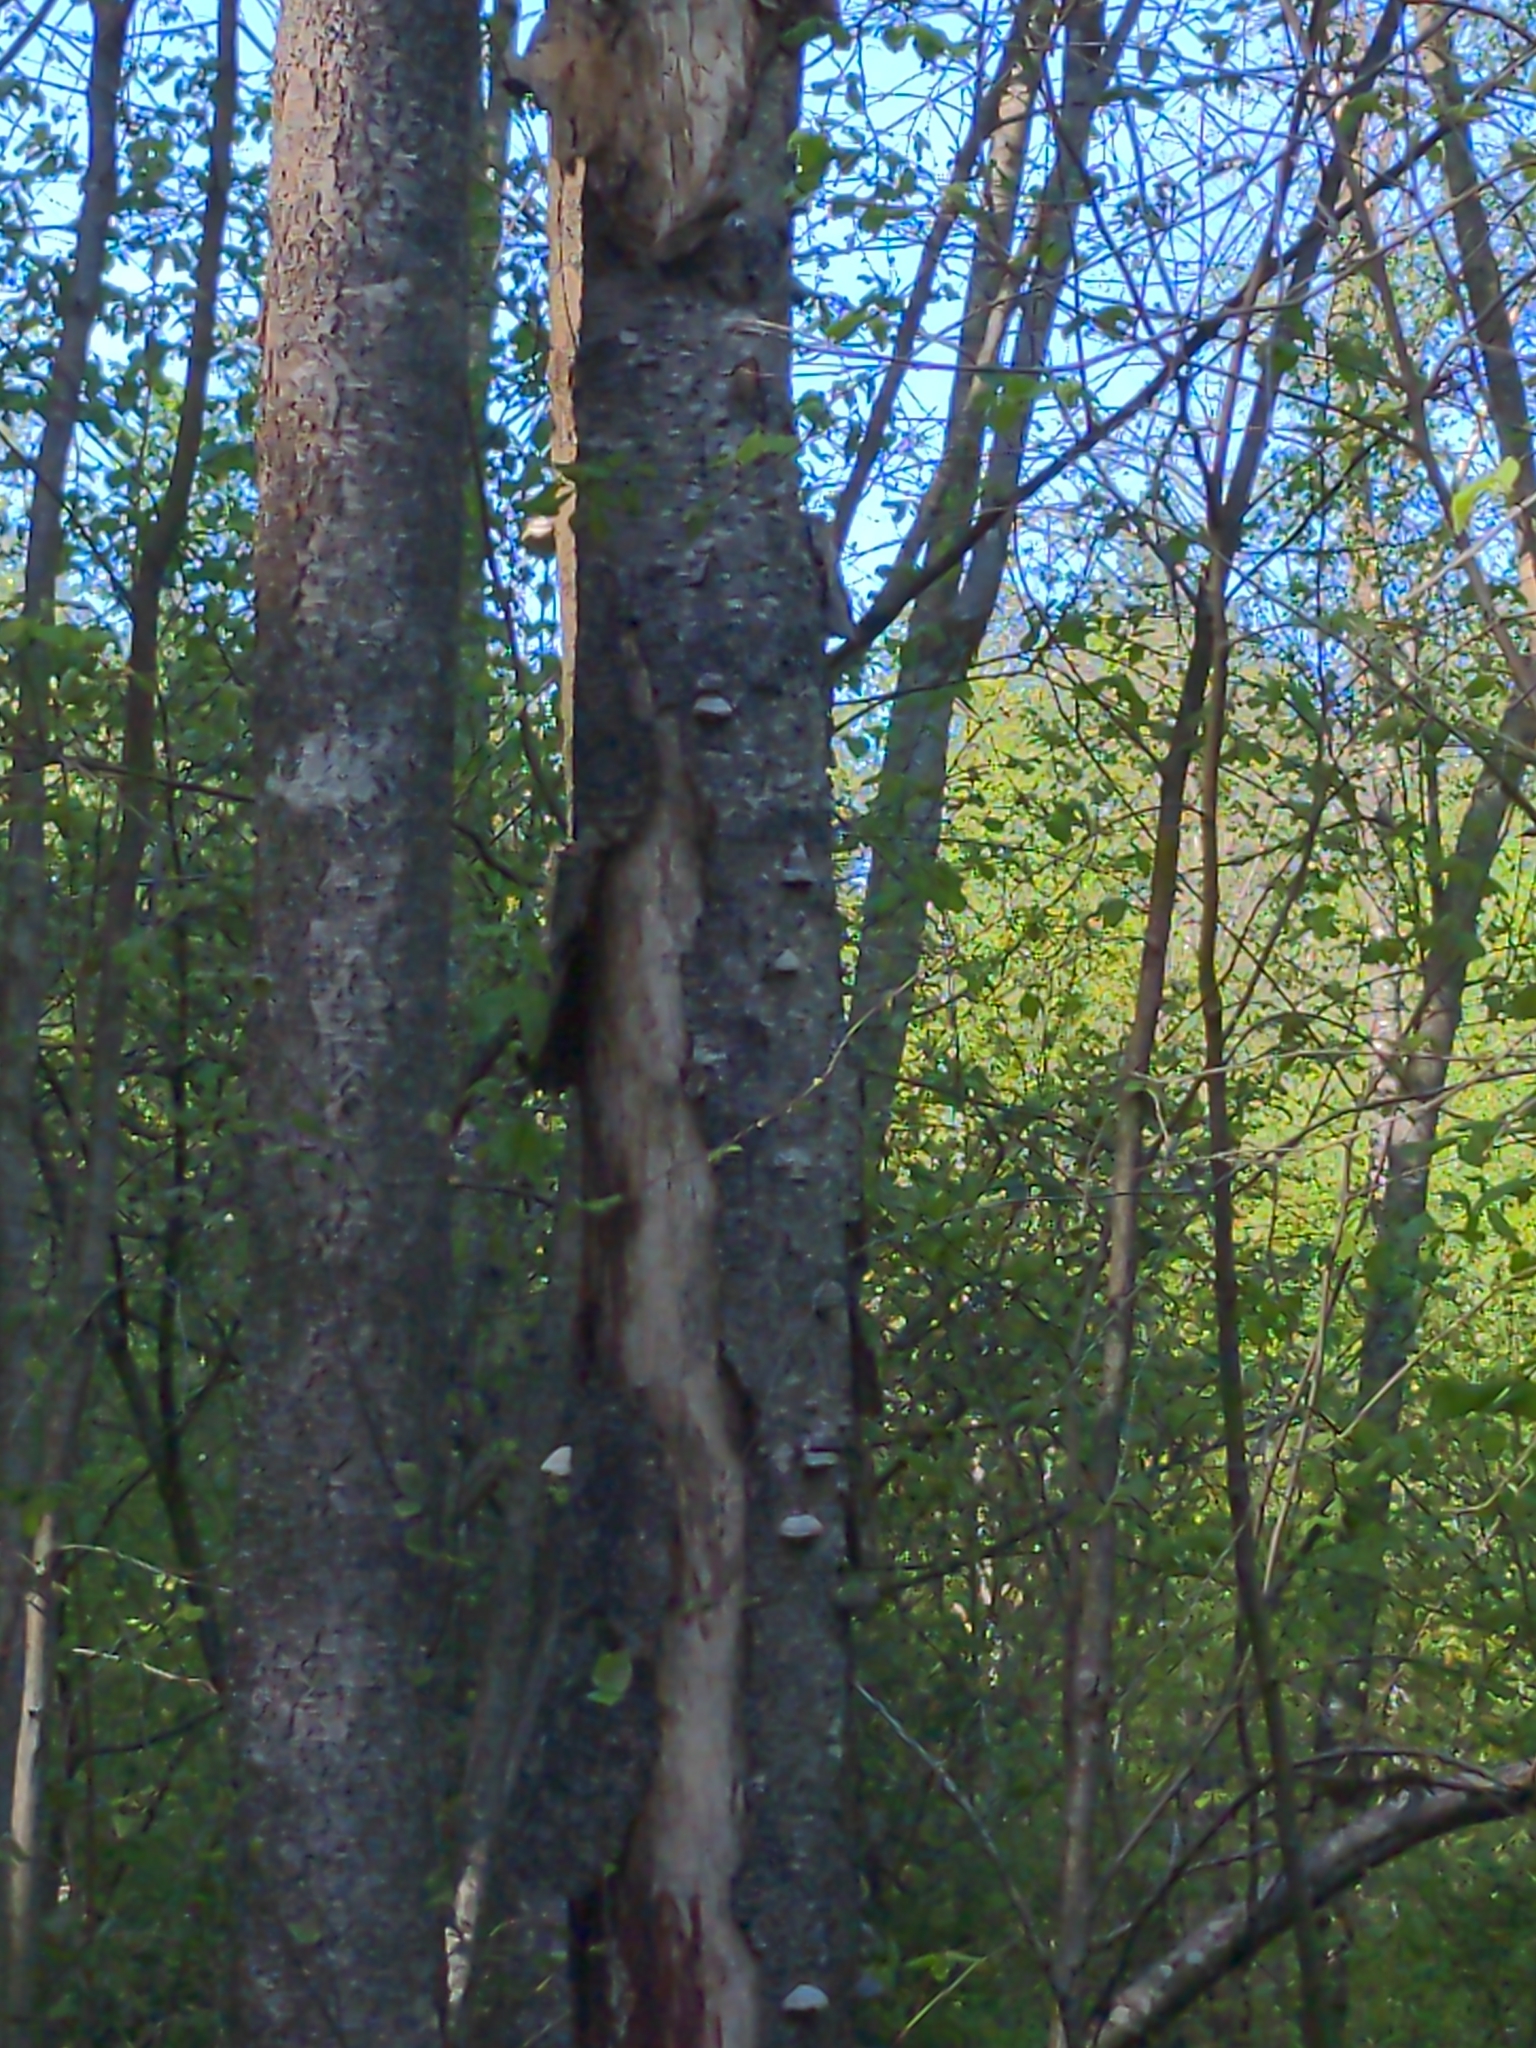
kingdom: Fungi
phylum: Basidiomycota
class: Agaricomycetes
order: Polyporales
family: Polyporaceae
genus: Fomes
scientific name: Fomes fomentarius
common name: Hoof fungus
